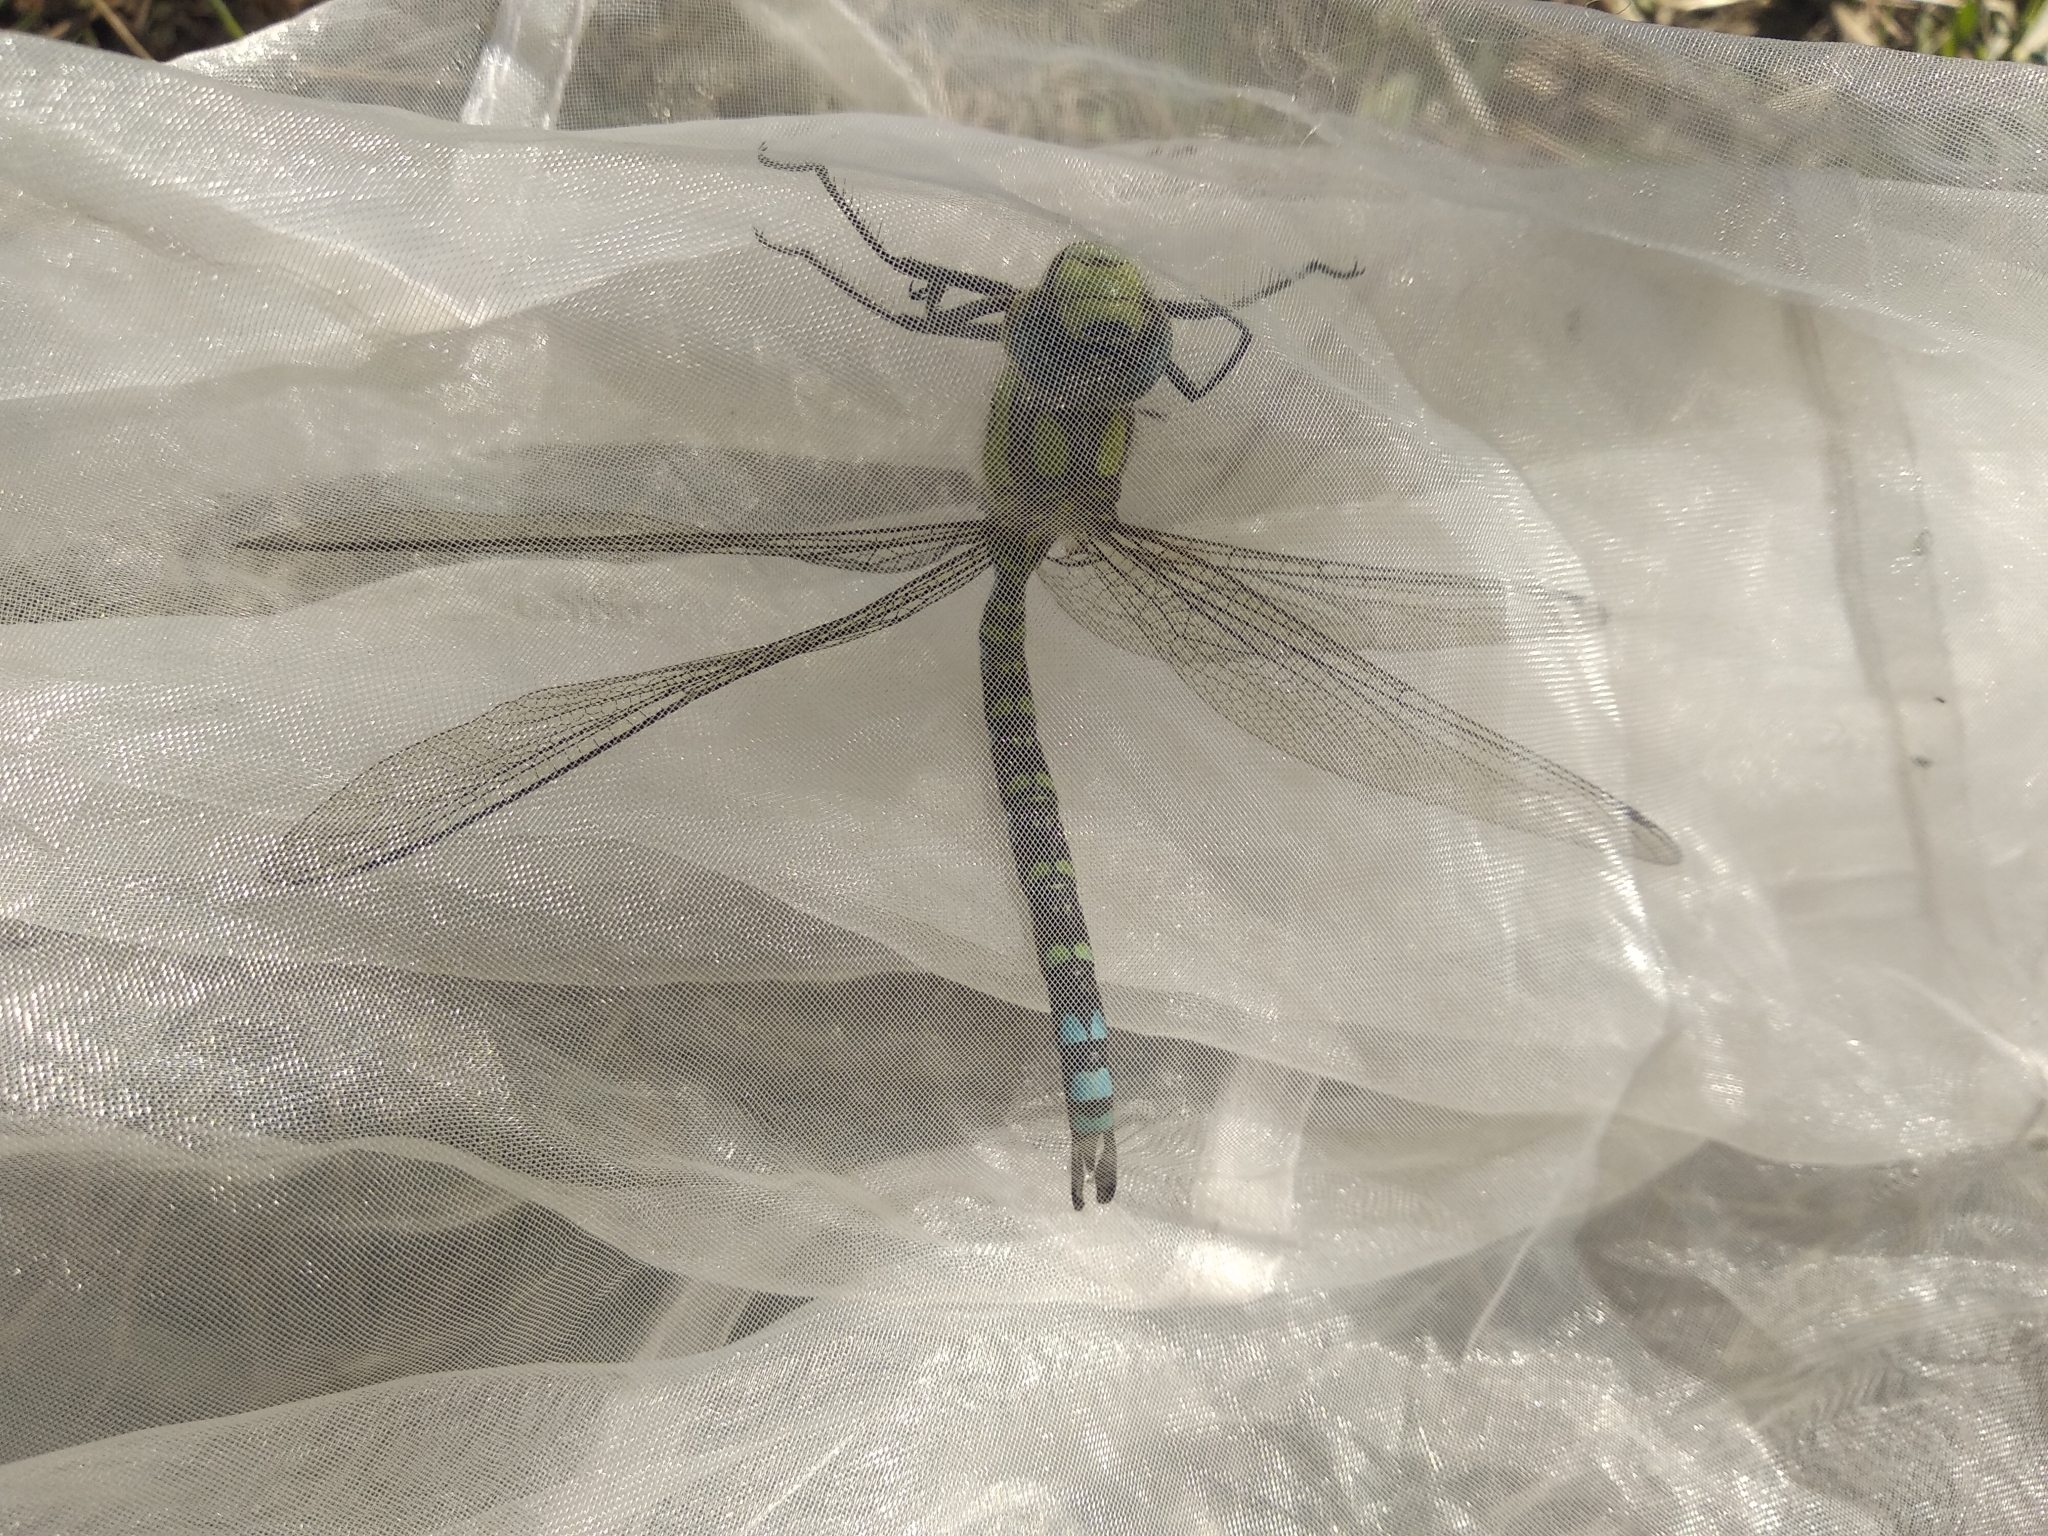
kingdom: Animalia
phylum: Arthropoda
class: Insecta
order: Odonata
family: Aeshnidae
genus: Aeshna
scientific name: Aeshna cyanea
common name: Southern hawker
